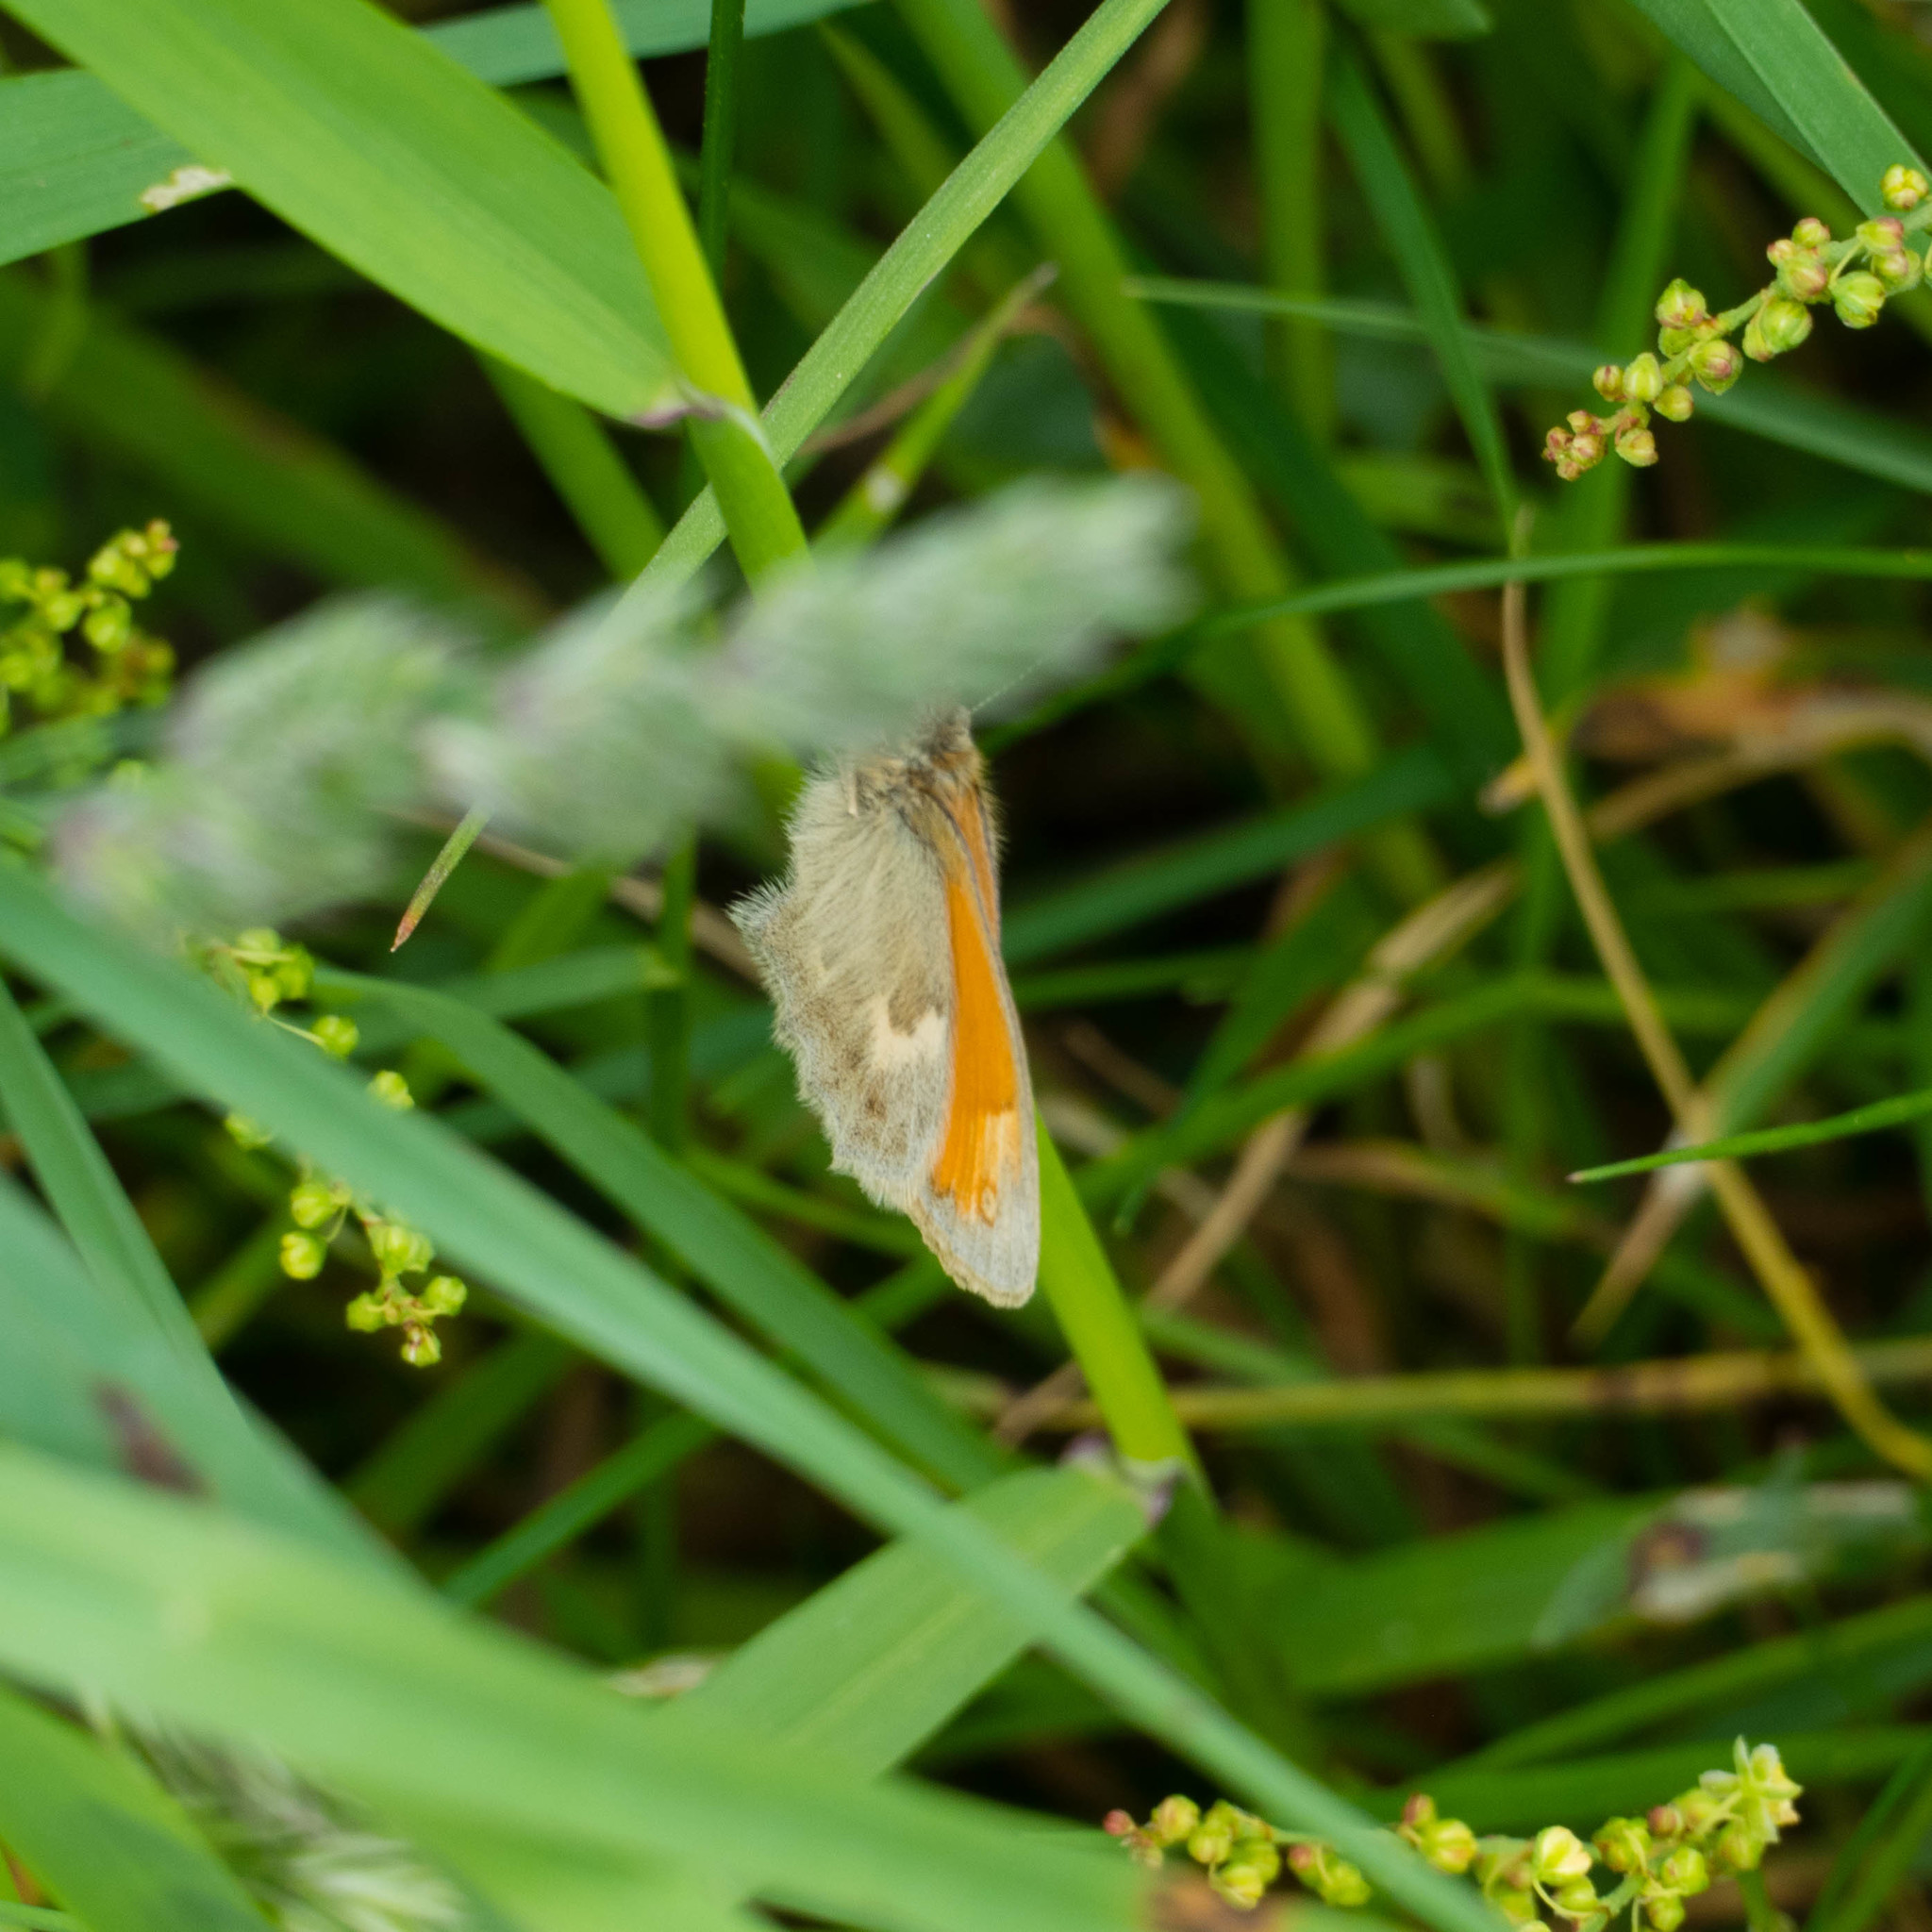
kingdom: Animalia
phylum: Arthropoda
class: Insecta
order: Lepidoptera
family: Nymphalidae
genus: Coenonympha
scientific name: Coenonympha pamphilus
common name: Small heath
